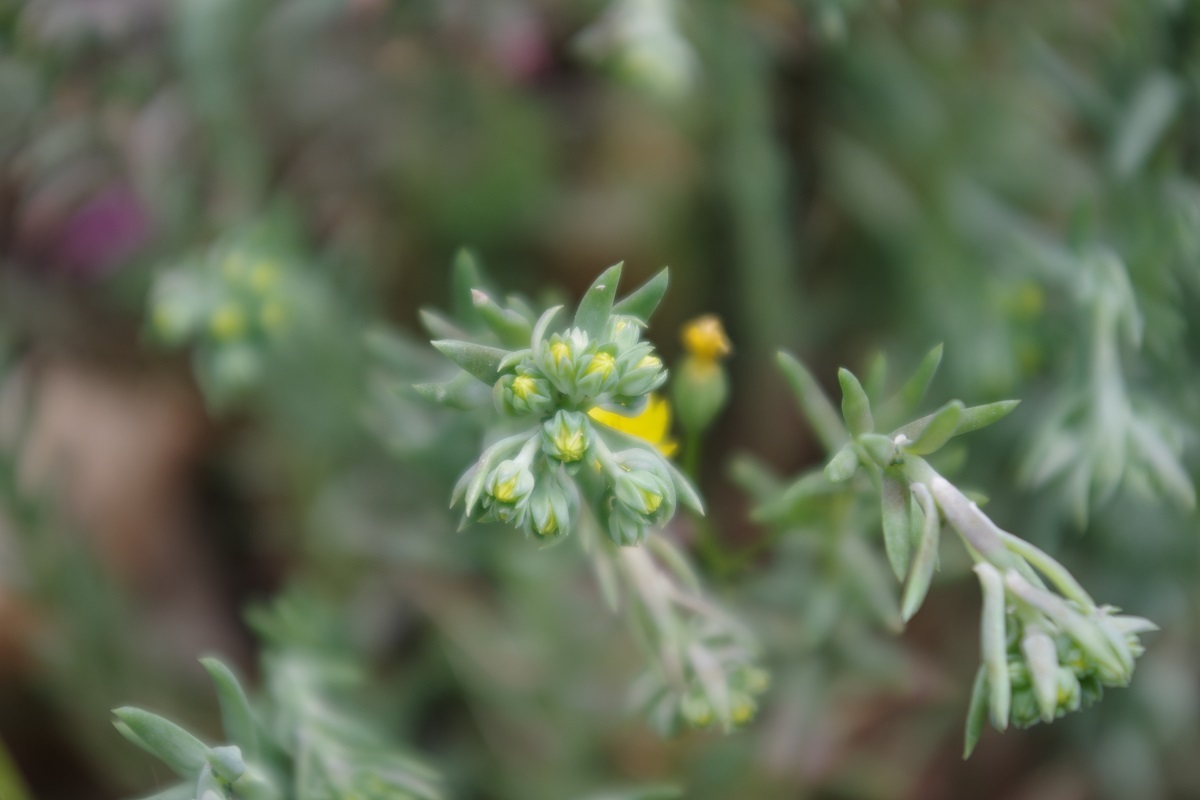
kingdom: Plantae
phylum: Tracheophyta
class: Magnoliopsida
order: Saxifragales
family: Crassulaceae
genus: Petrosedum
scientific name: Petrosedum rupestre
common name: Jenny's stonecrop
